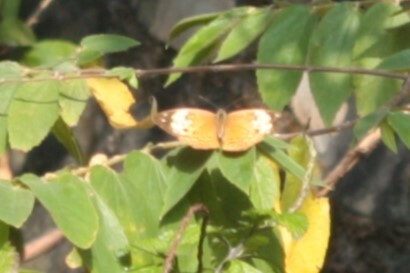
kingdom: Animalia
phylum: Arthropoda
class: Insecta
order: Lepidoptera
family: Nymphalidae
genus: Cupha
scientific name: Cupha erymanthis
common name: Rustic
